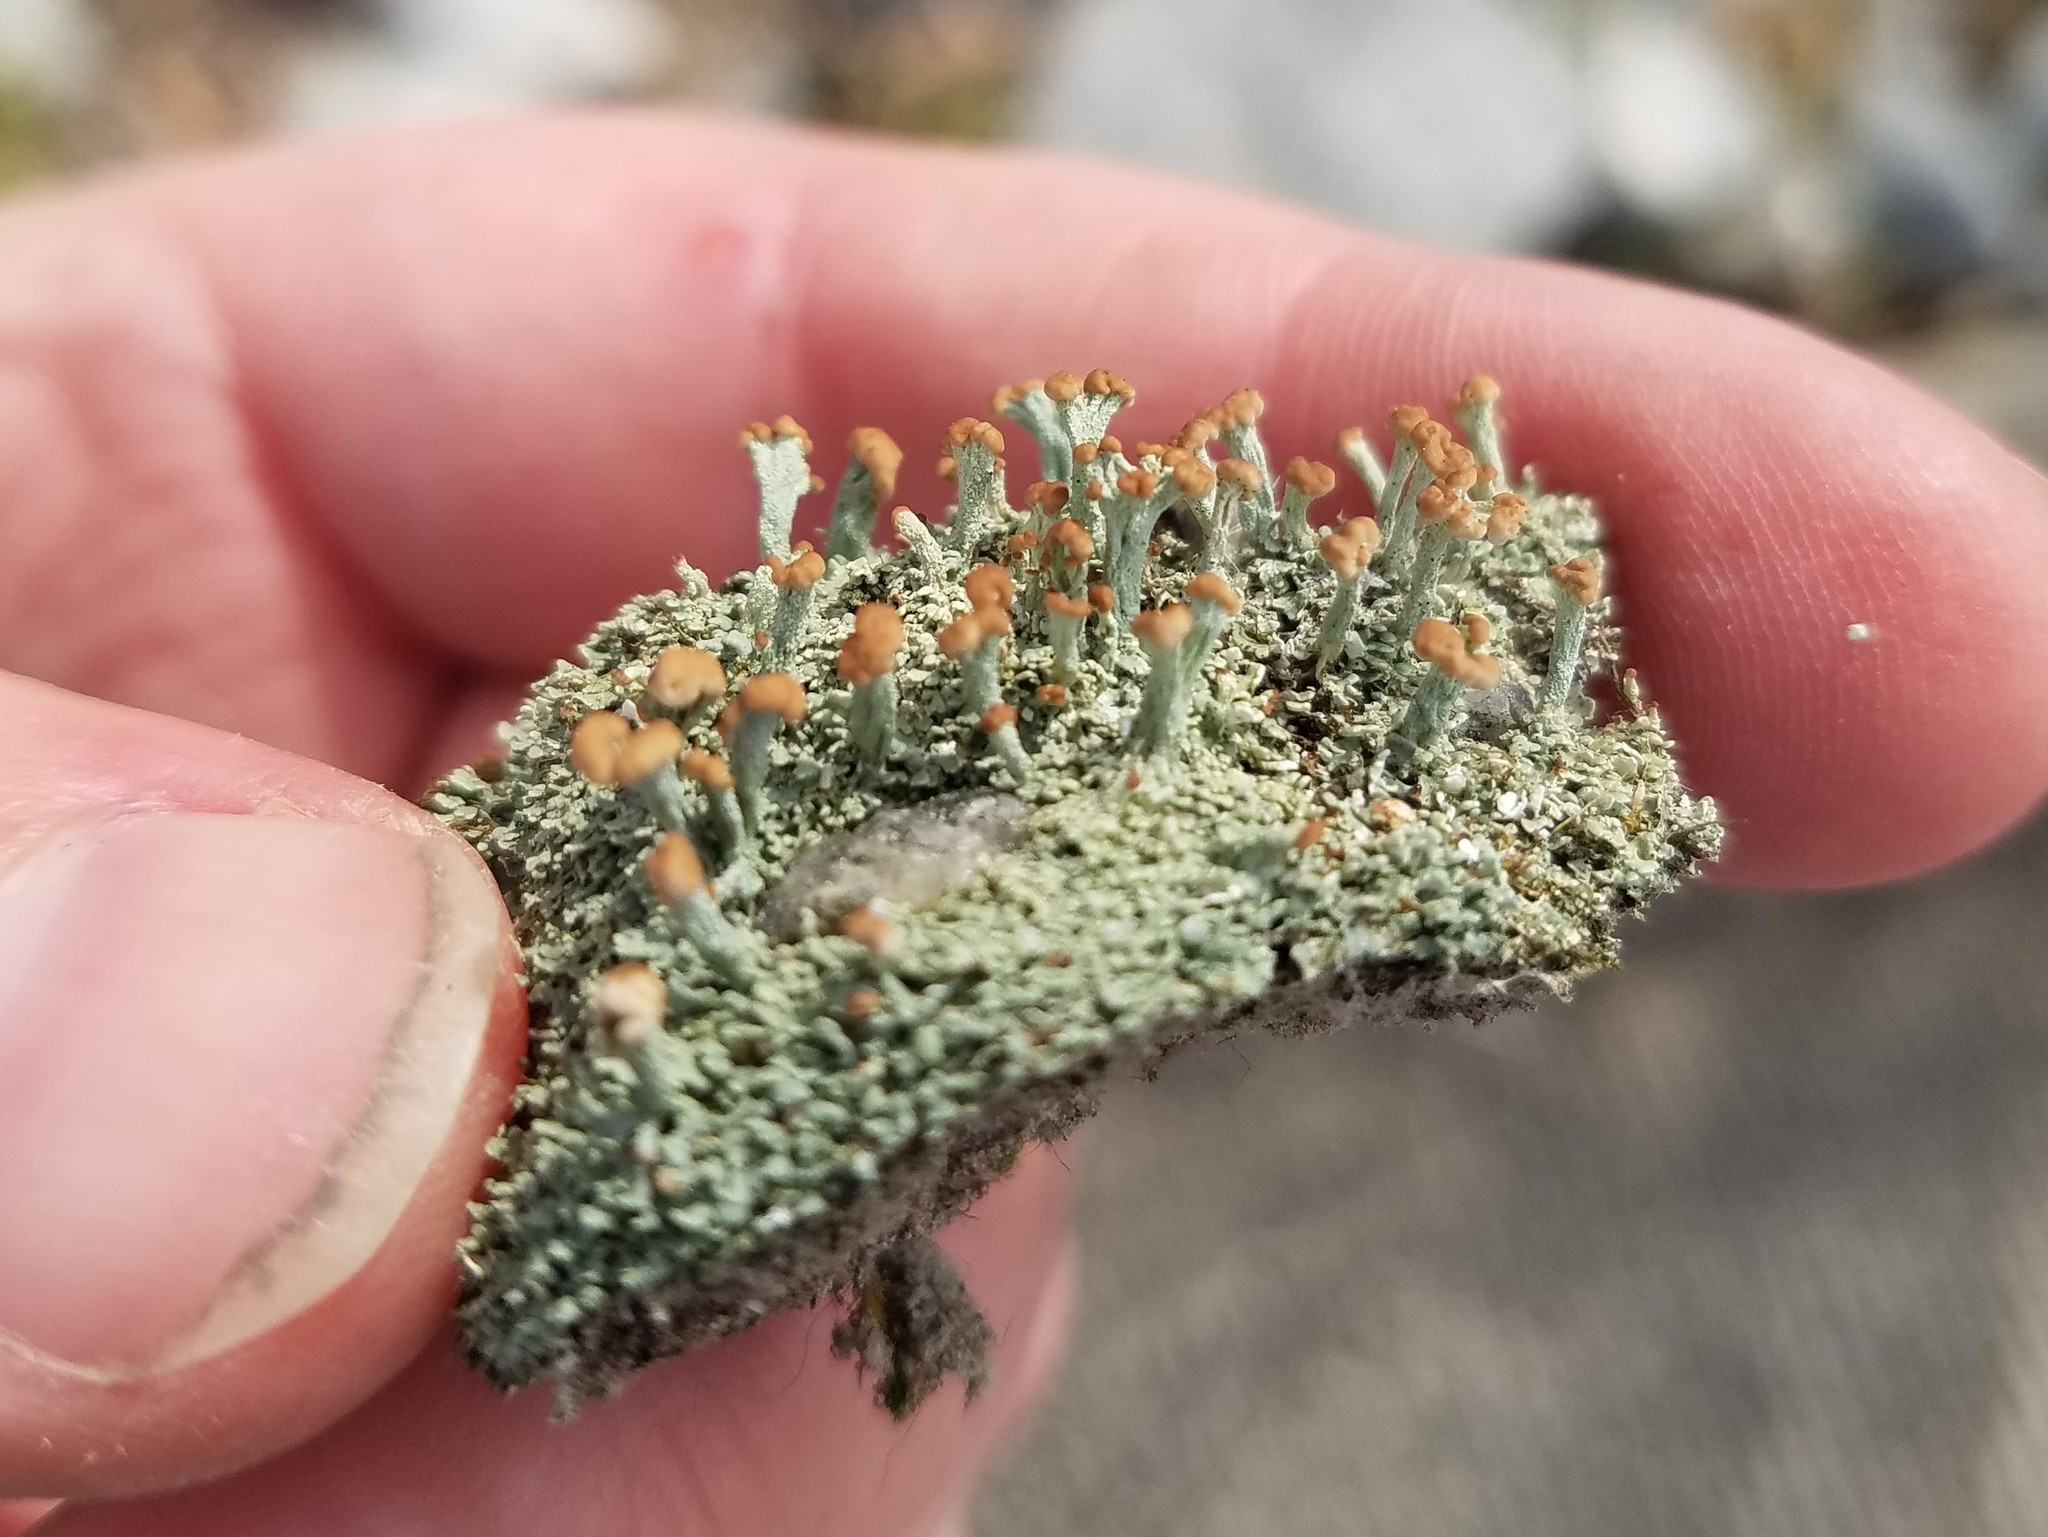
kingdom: Fungi
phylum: Ascomycota
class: Lecanoromycetes
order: Lecanorales
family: Cladoniaceae
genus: Cladonia
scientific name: Cladonia peziziformis
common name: Cup lichen
